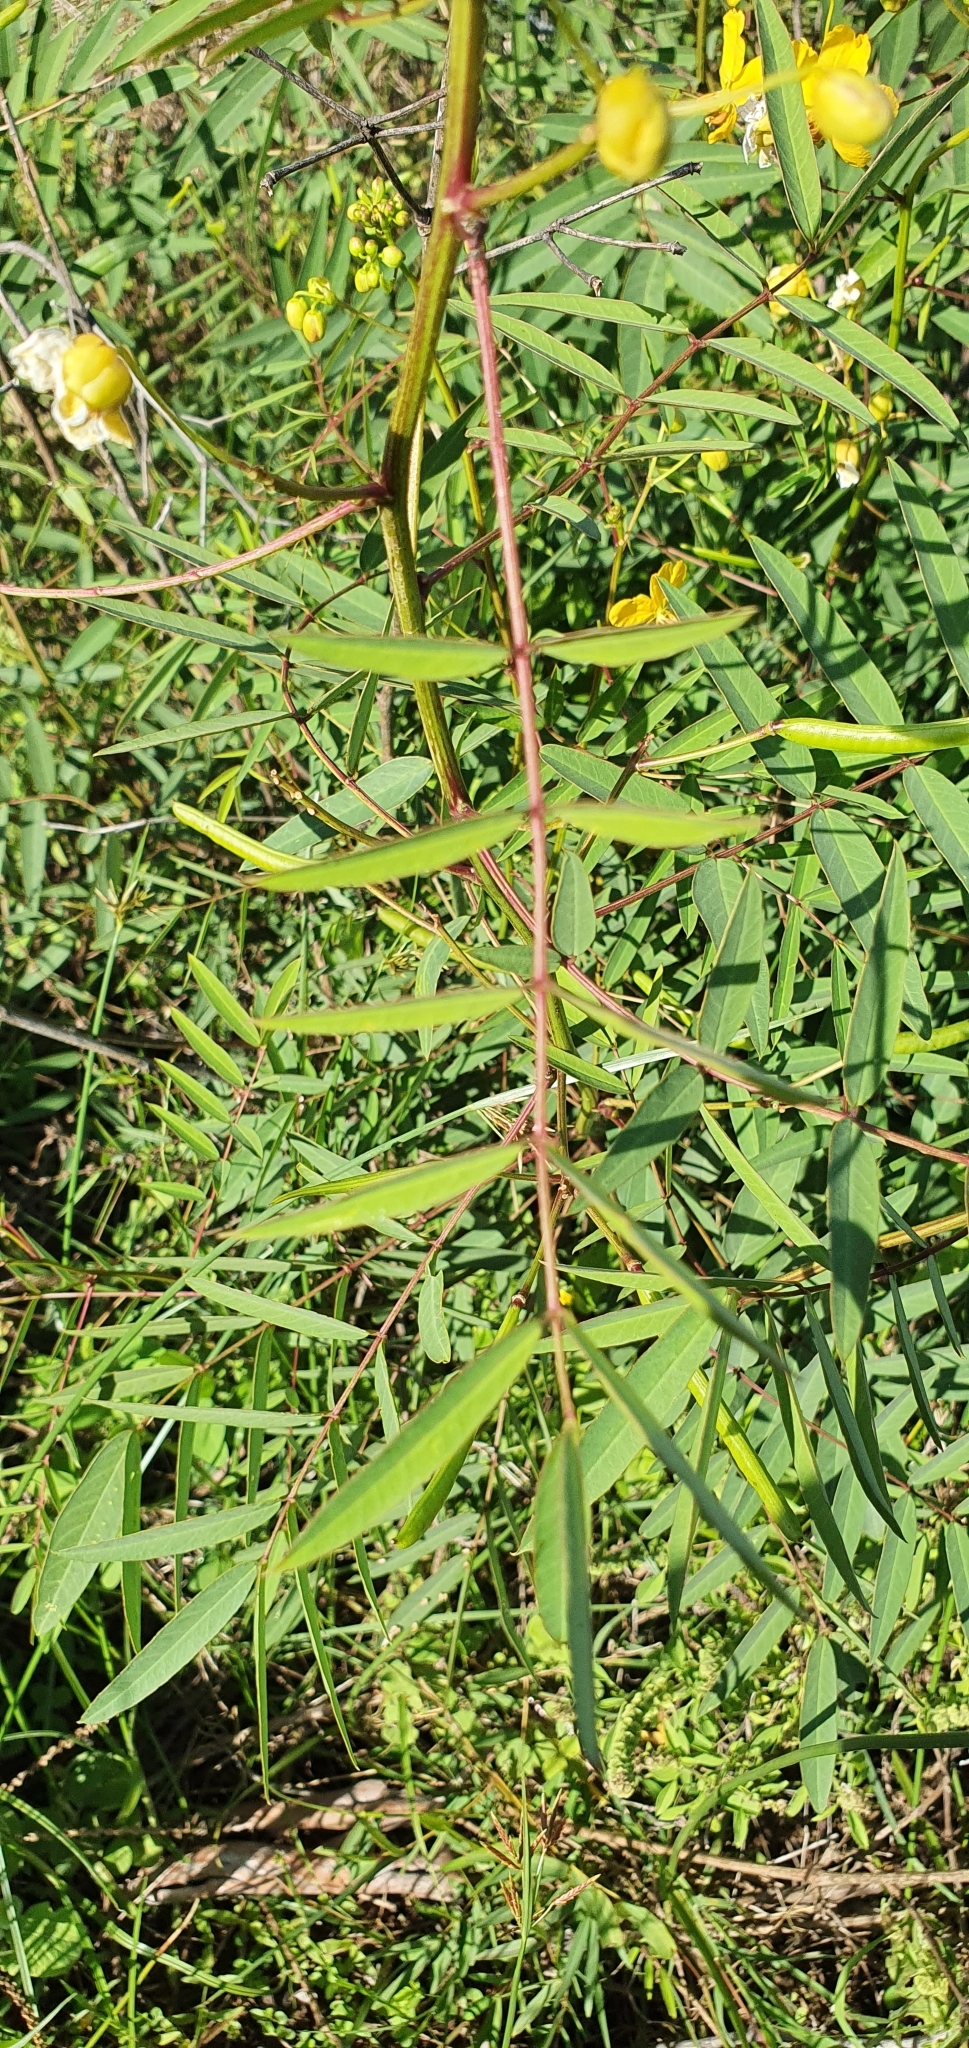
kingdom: Plantae
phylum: Tracheophyta
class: Magnoliopsida
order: Fabales
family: Fabaceae
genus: Senna
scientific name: Senna barclayana
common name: Smooth senna
